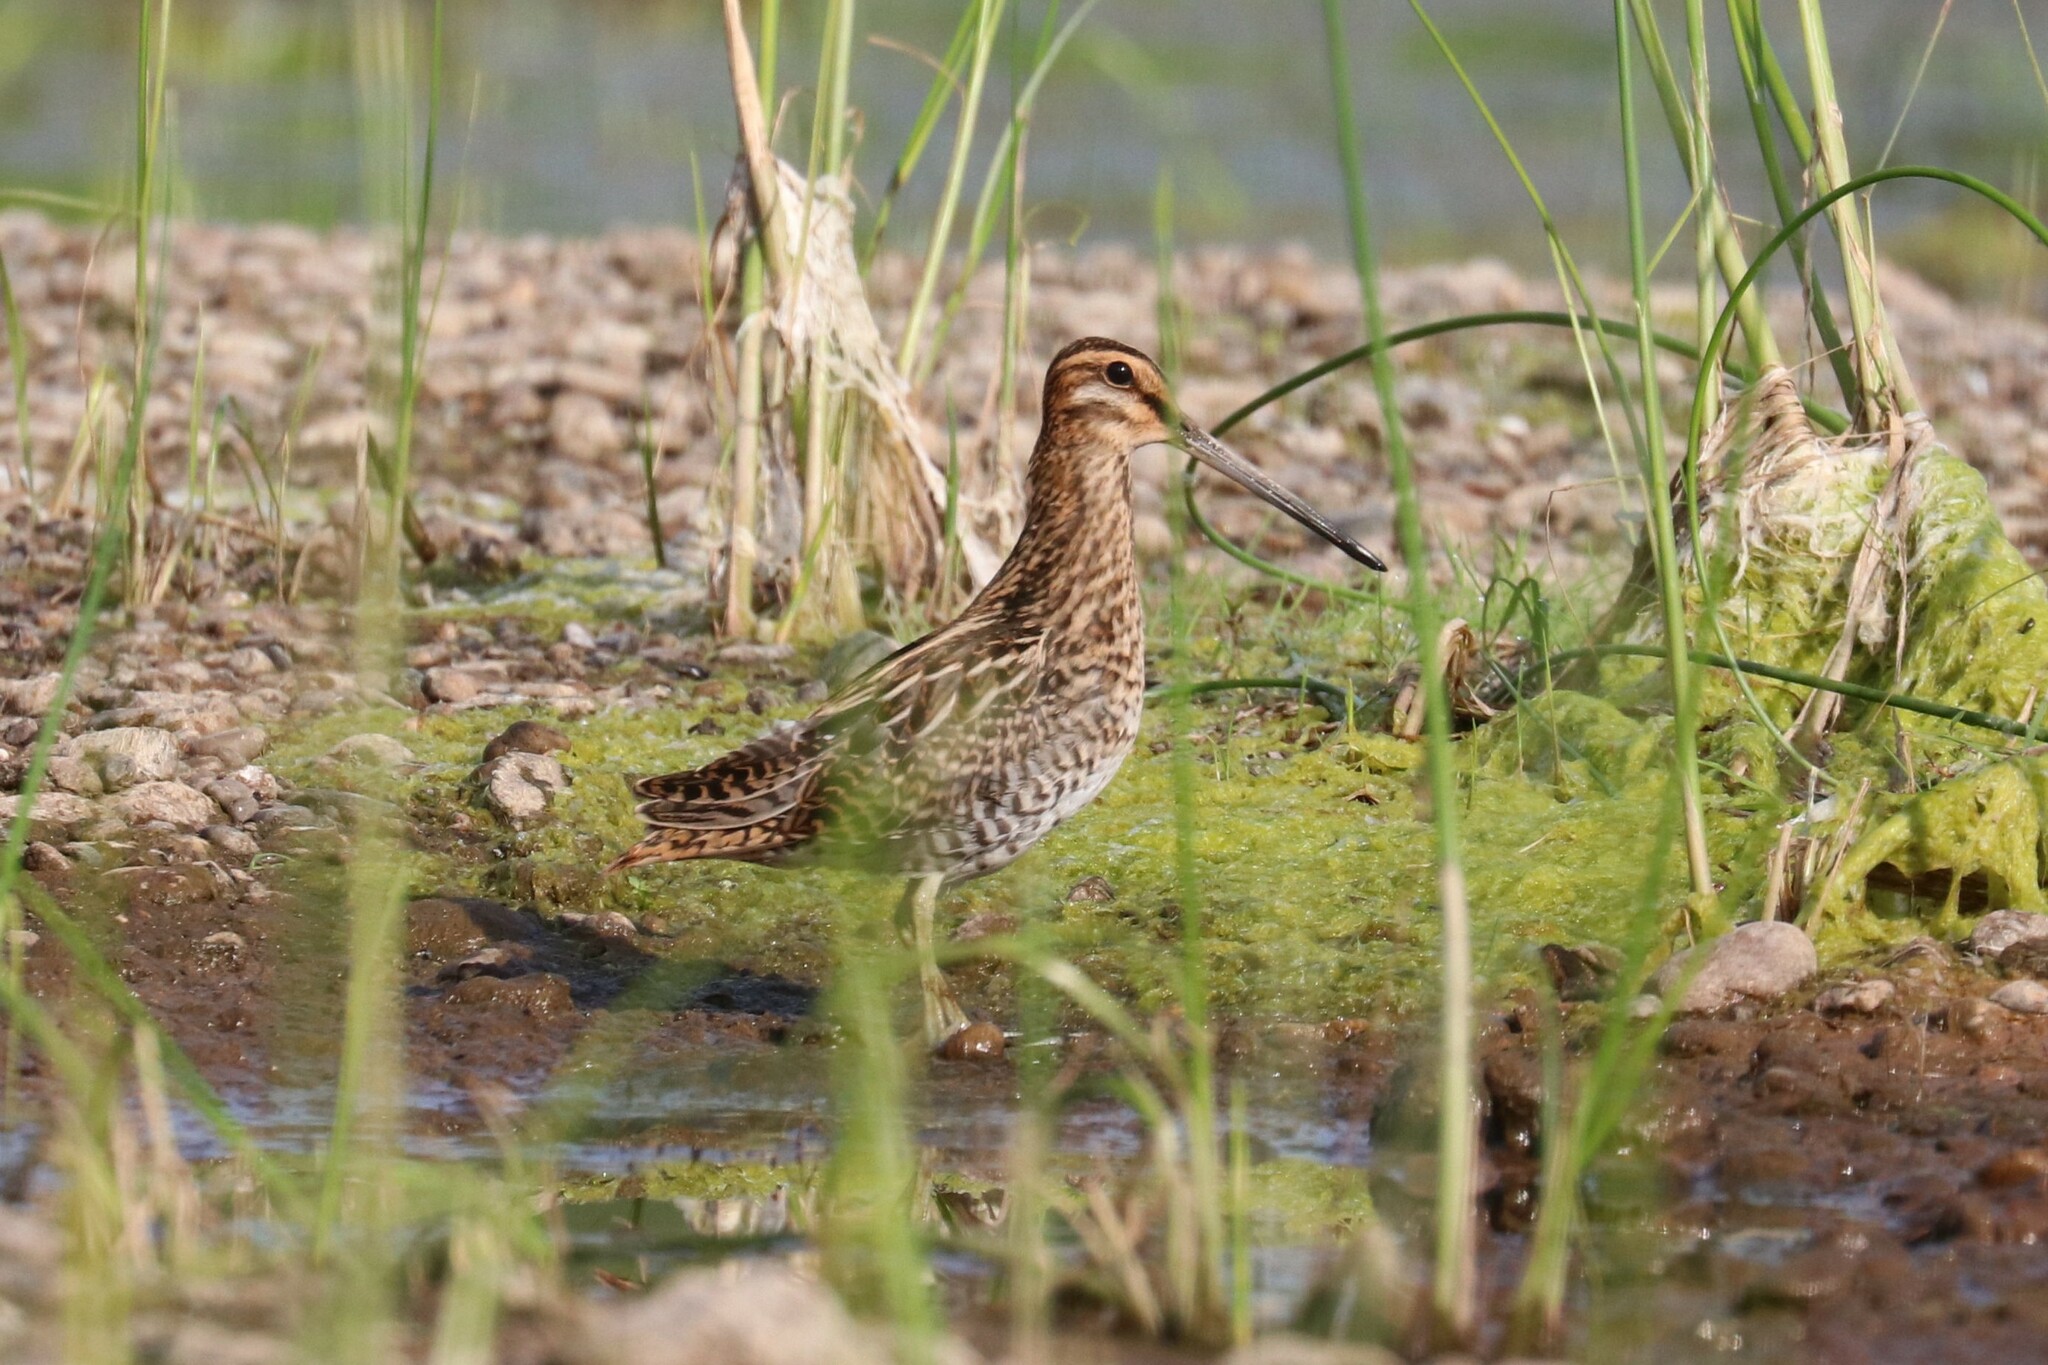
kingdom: Animalia
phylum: Chordata
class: Aves
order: Charadriiformes
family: Scolopacidae
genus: Gallinago
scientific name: Gallinago gallinago
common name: Common snipe
